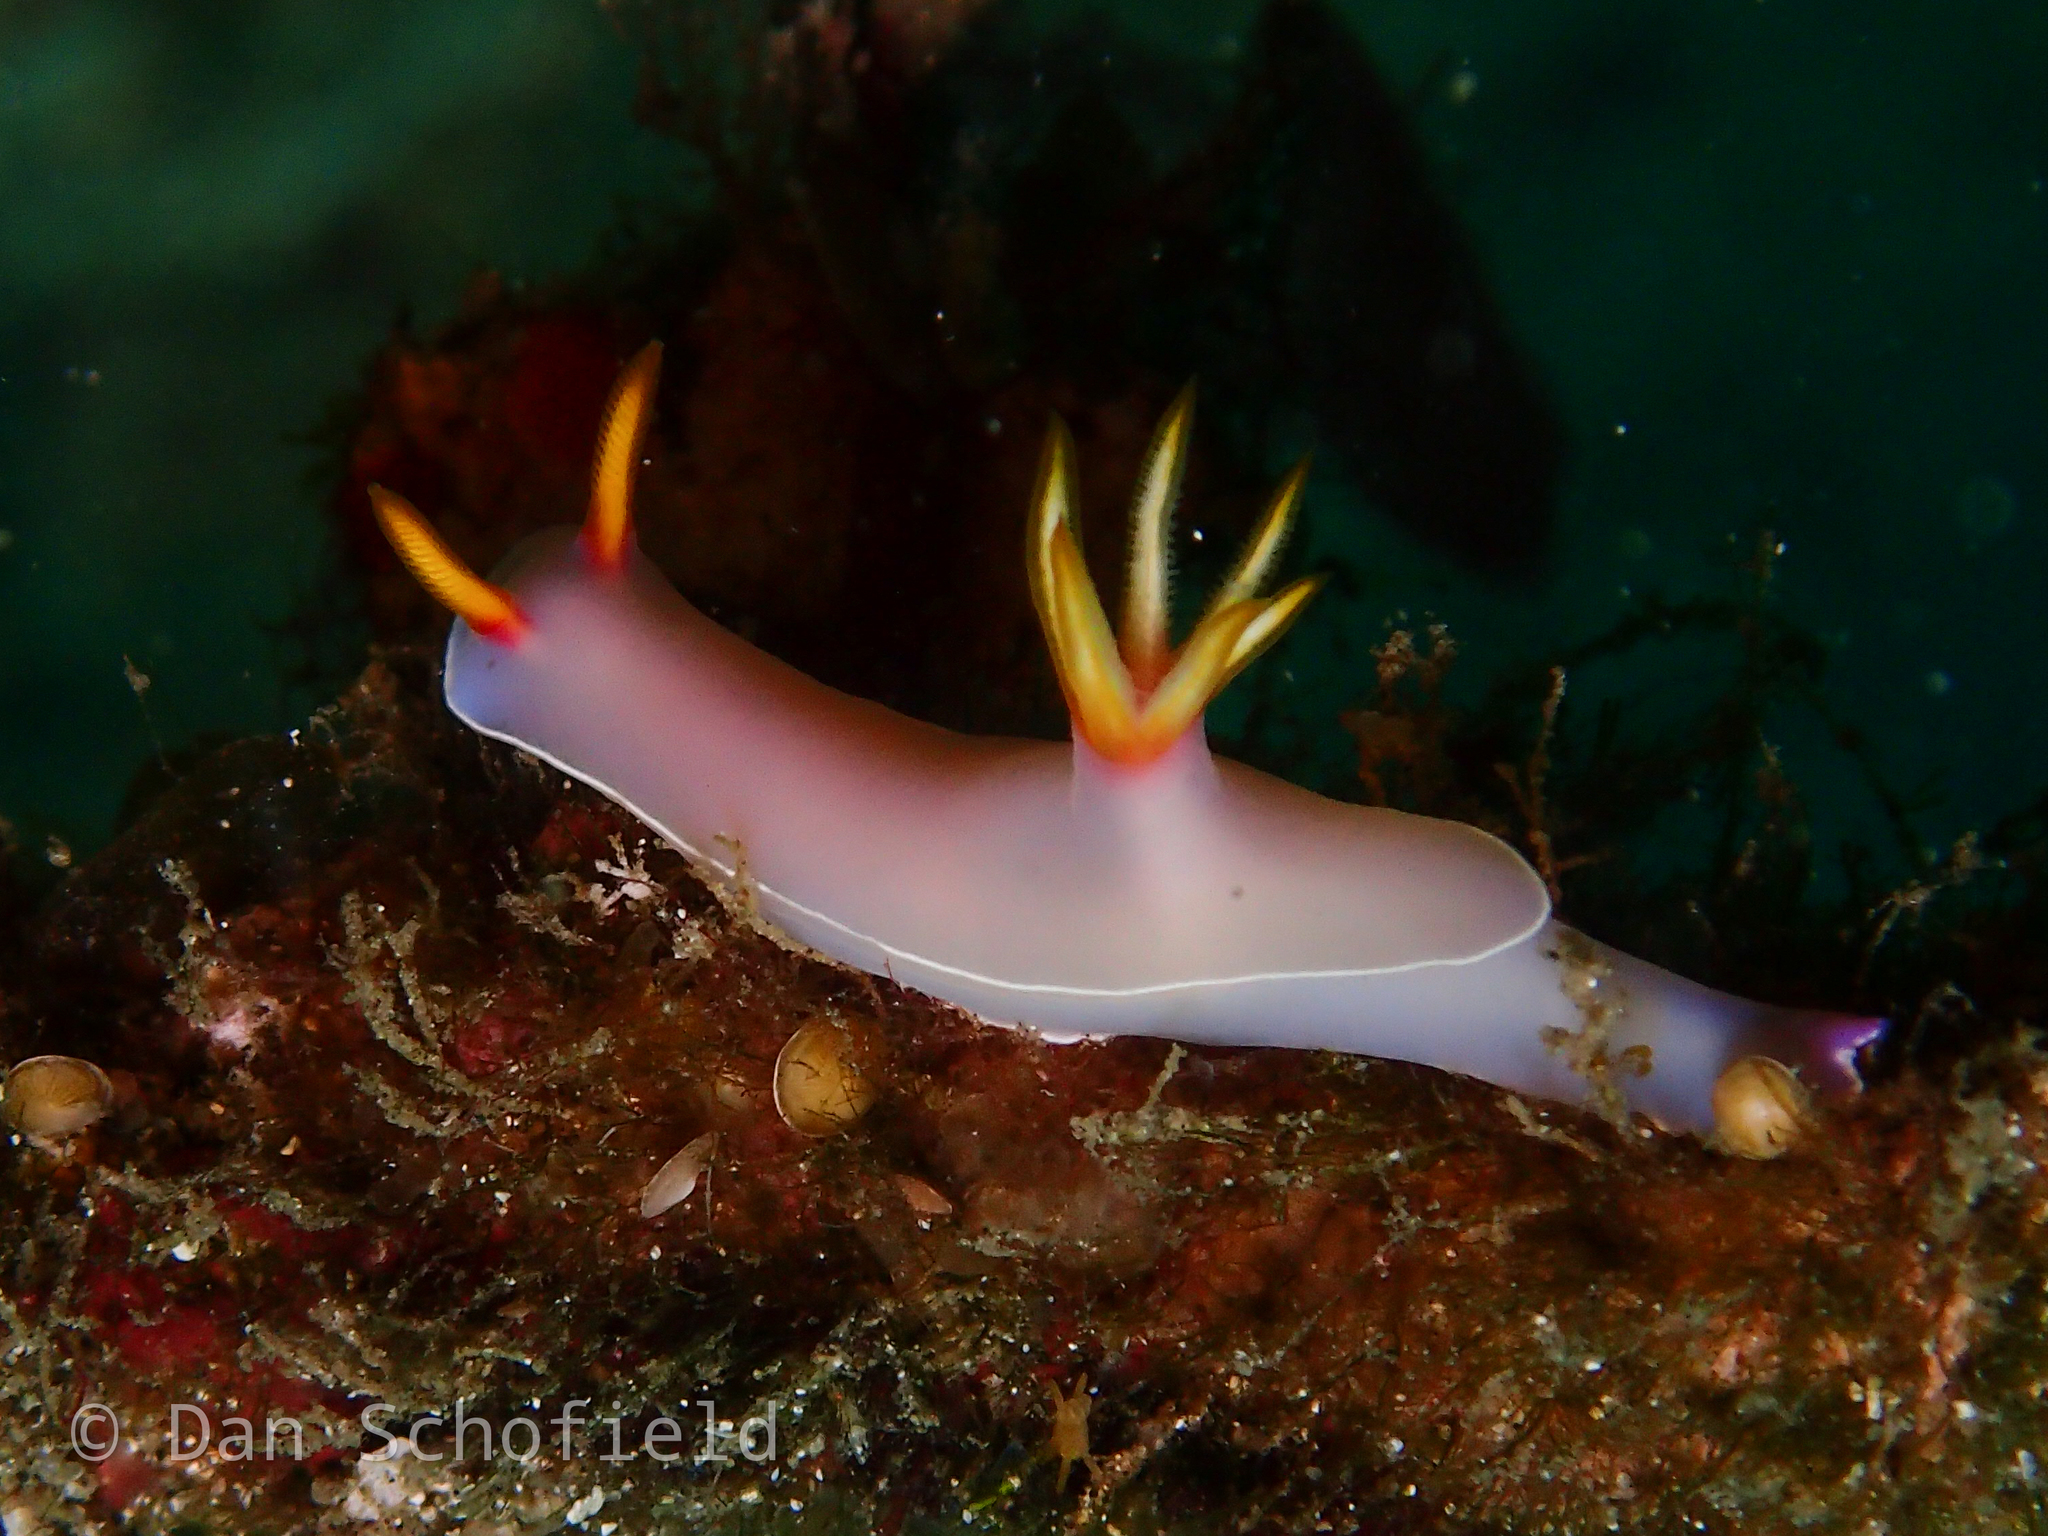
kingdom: Animalia
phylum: Mollusca
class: Gastropoda
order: Nudibranchia
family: Chromodorididae
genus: Hypselodoris
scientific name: Hypselodoris bullockii
